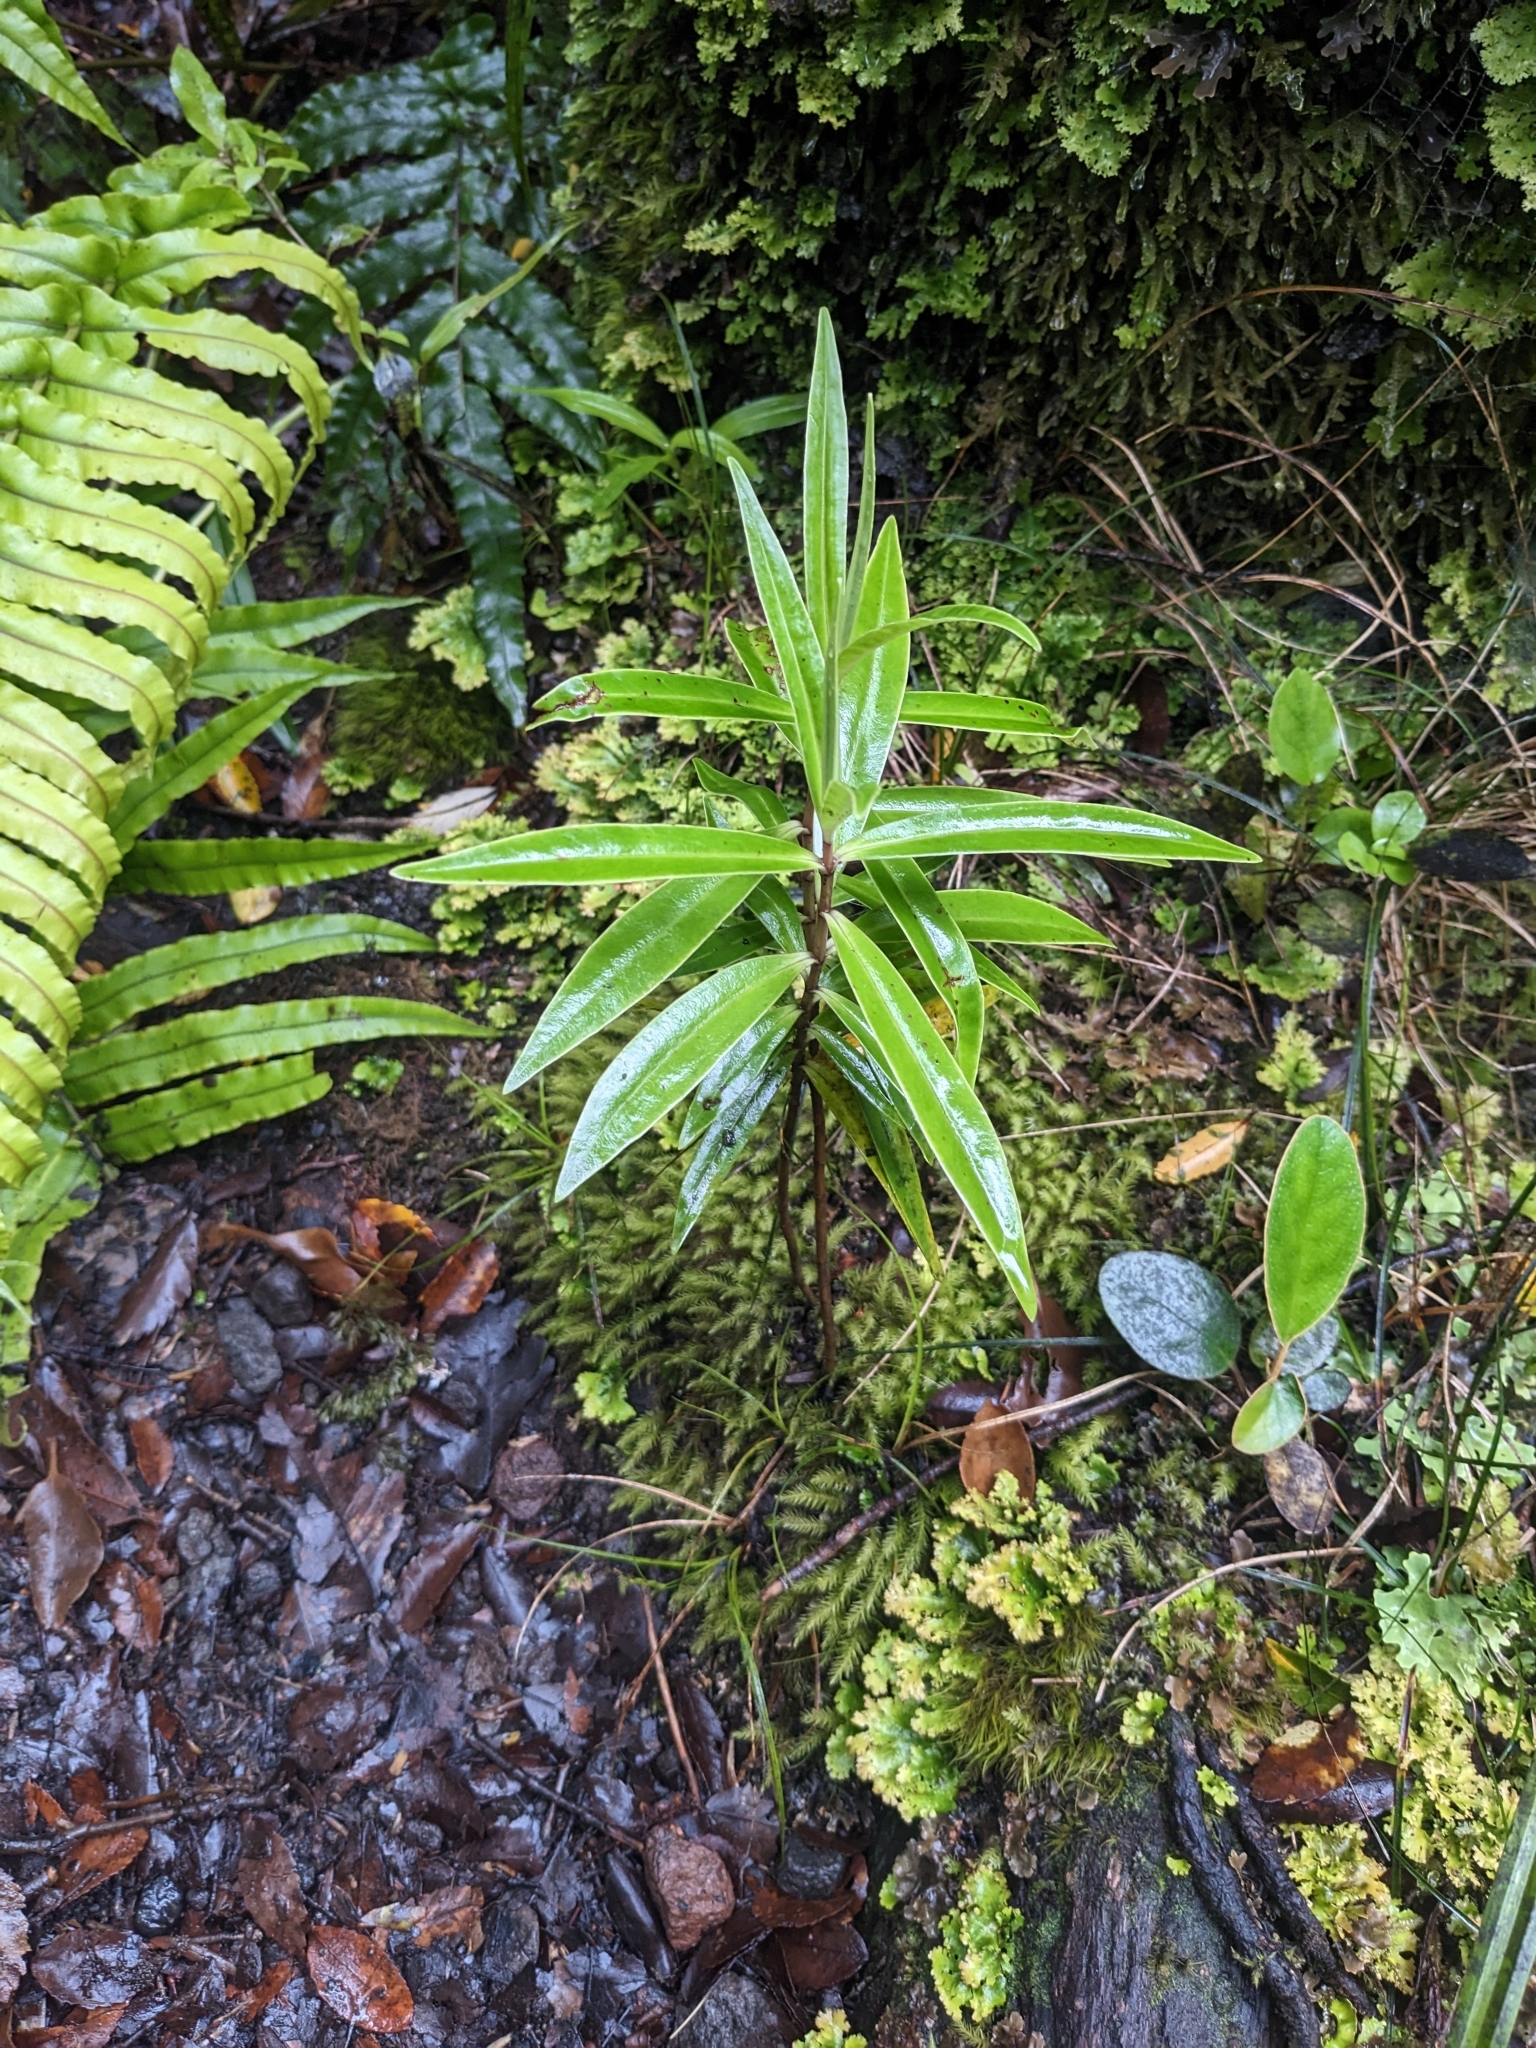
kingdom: Plantae
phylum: Tracheophyta
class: Magnoliopsida
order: Lamiales
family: Plantaginaceae
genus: Veronica
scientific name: Veronica stricta
